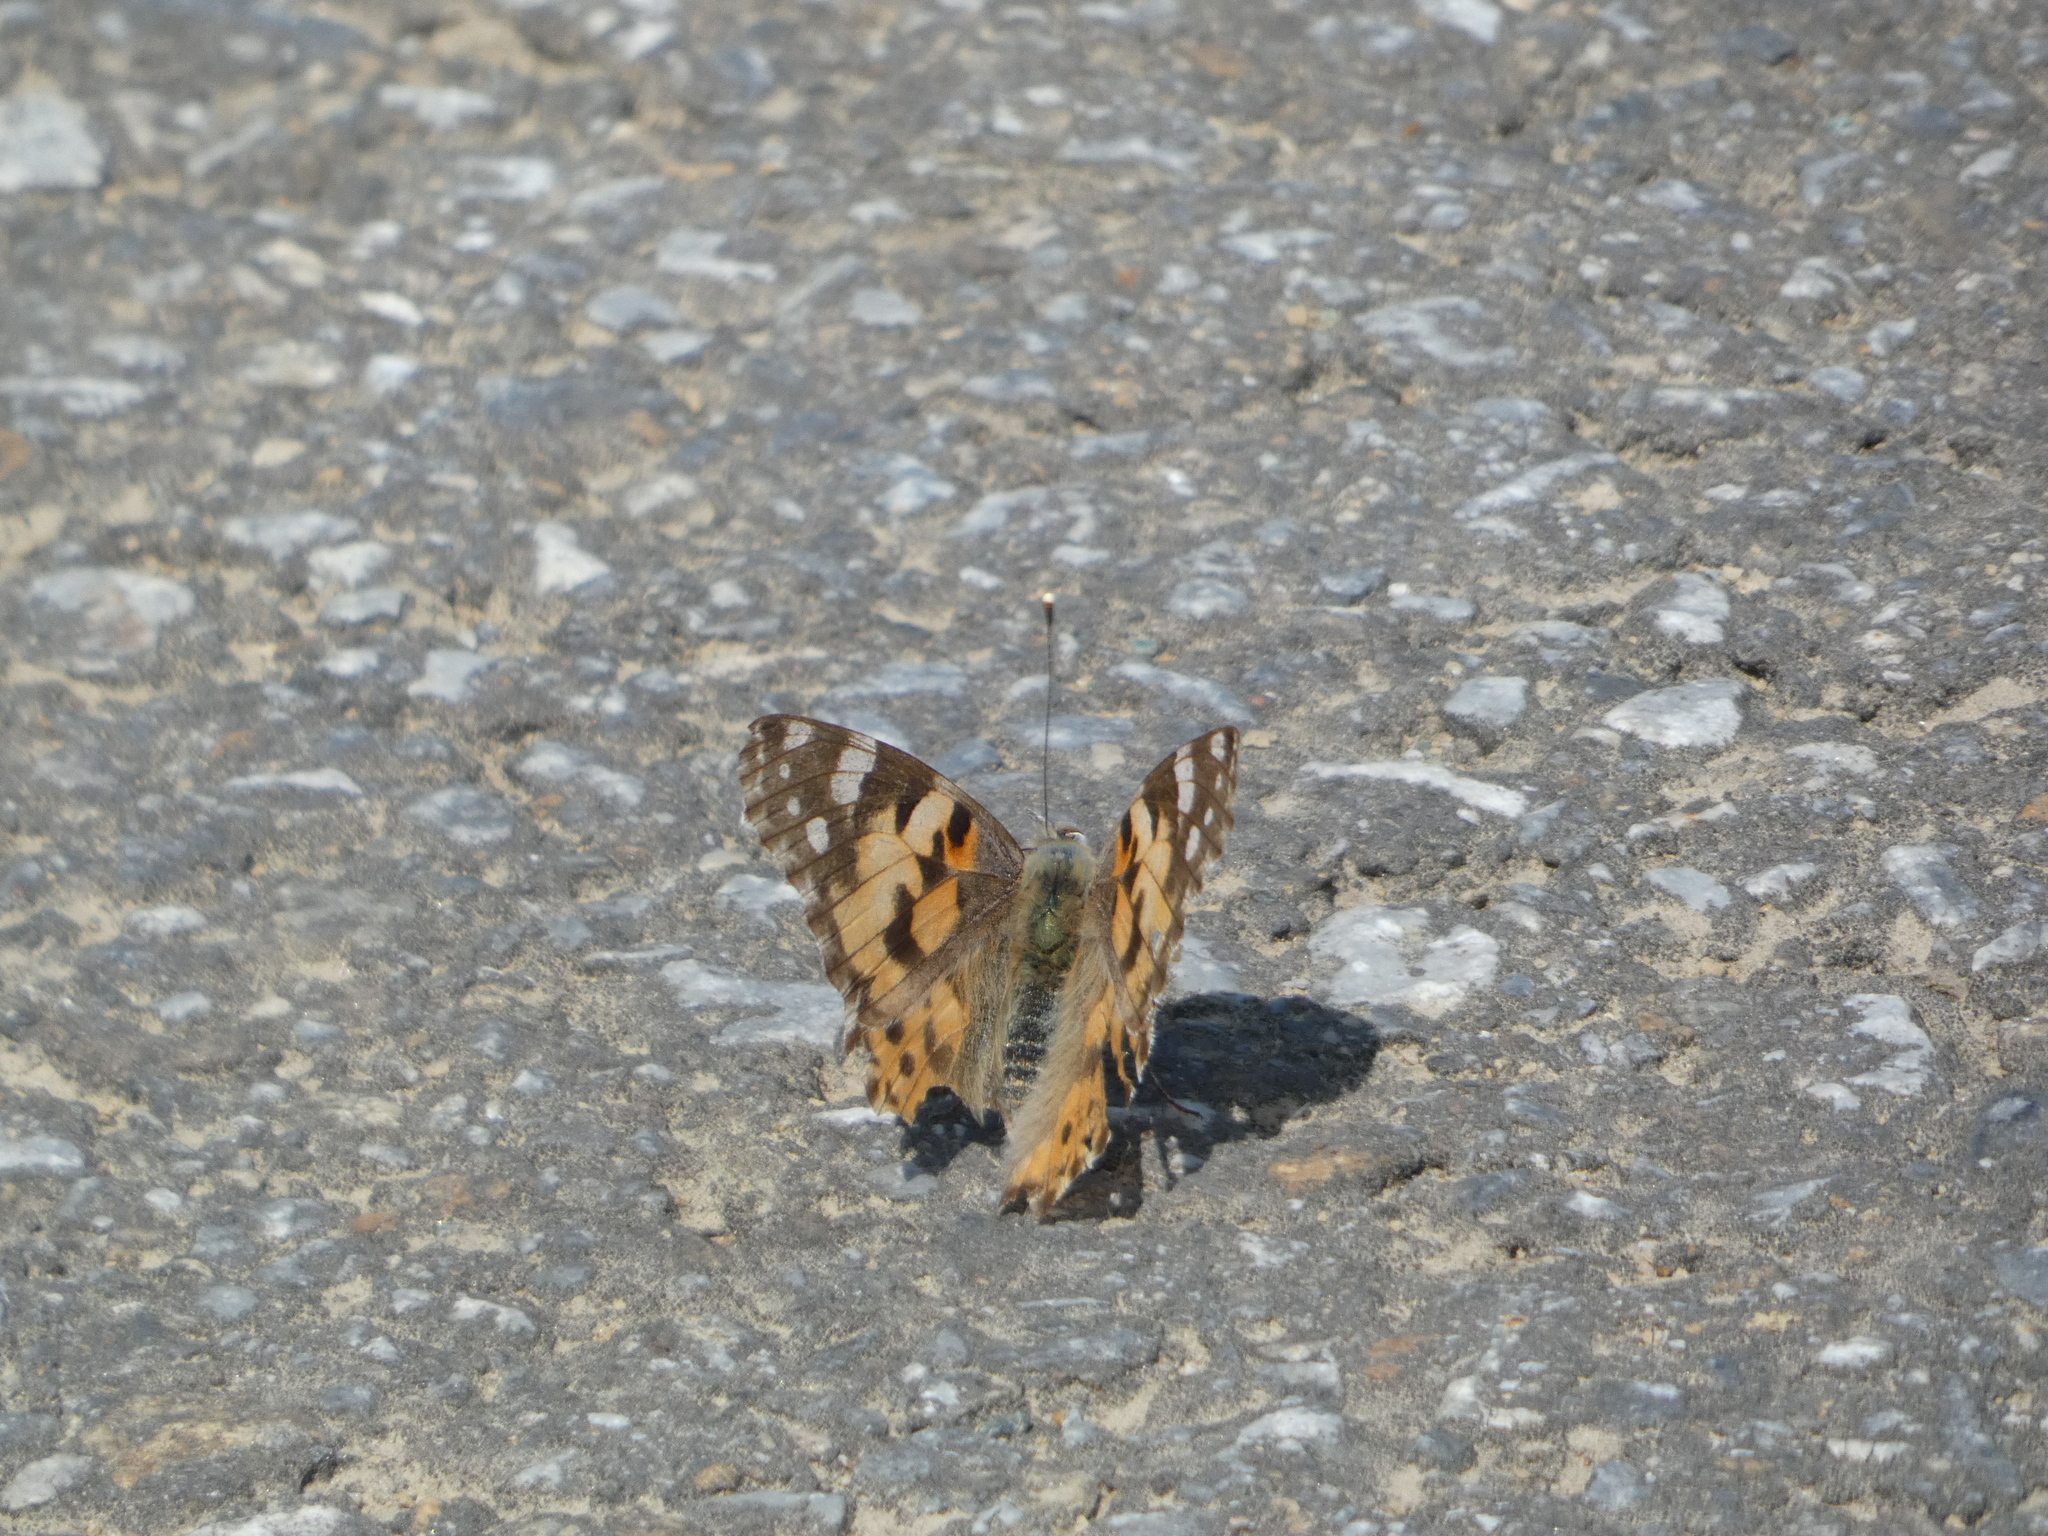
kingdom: Animalia
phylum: Arthropoda
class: Insecta
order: Lepidoptera
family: Nymphalidae
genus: Vanessa
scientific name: Vanessa cardui
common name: Painted lady
